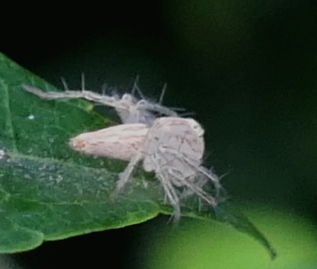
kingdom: Animalia
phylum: Arthropoda
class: Arachnida
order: Araneae
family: Oxyopidae
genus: Oxyopes
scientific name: Oxyopes salticus
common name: Lynx spiders
